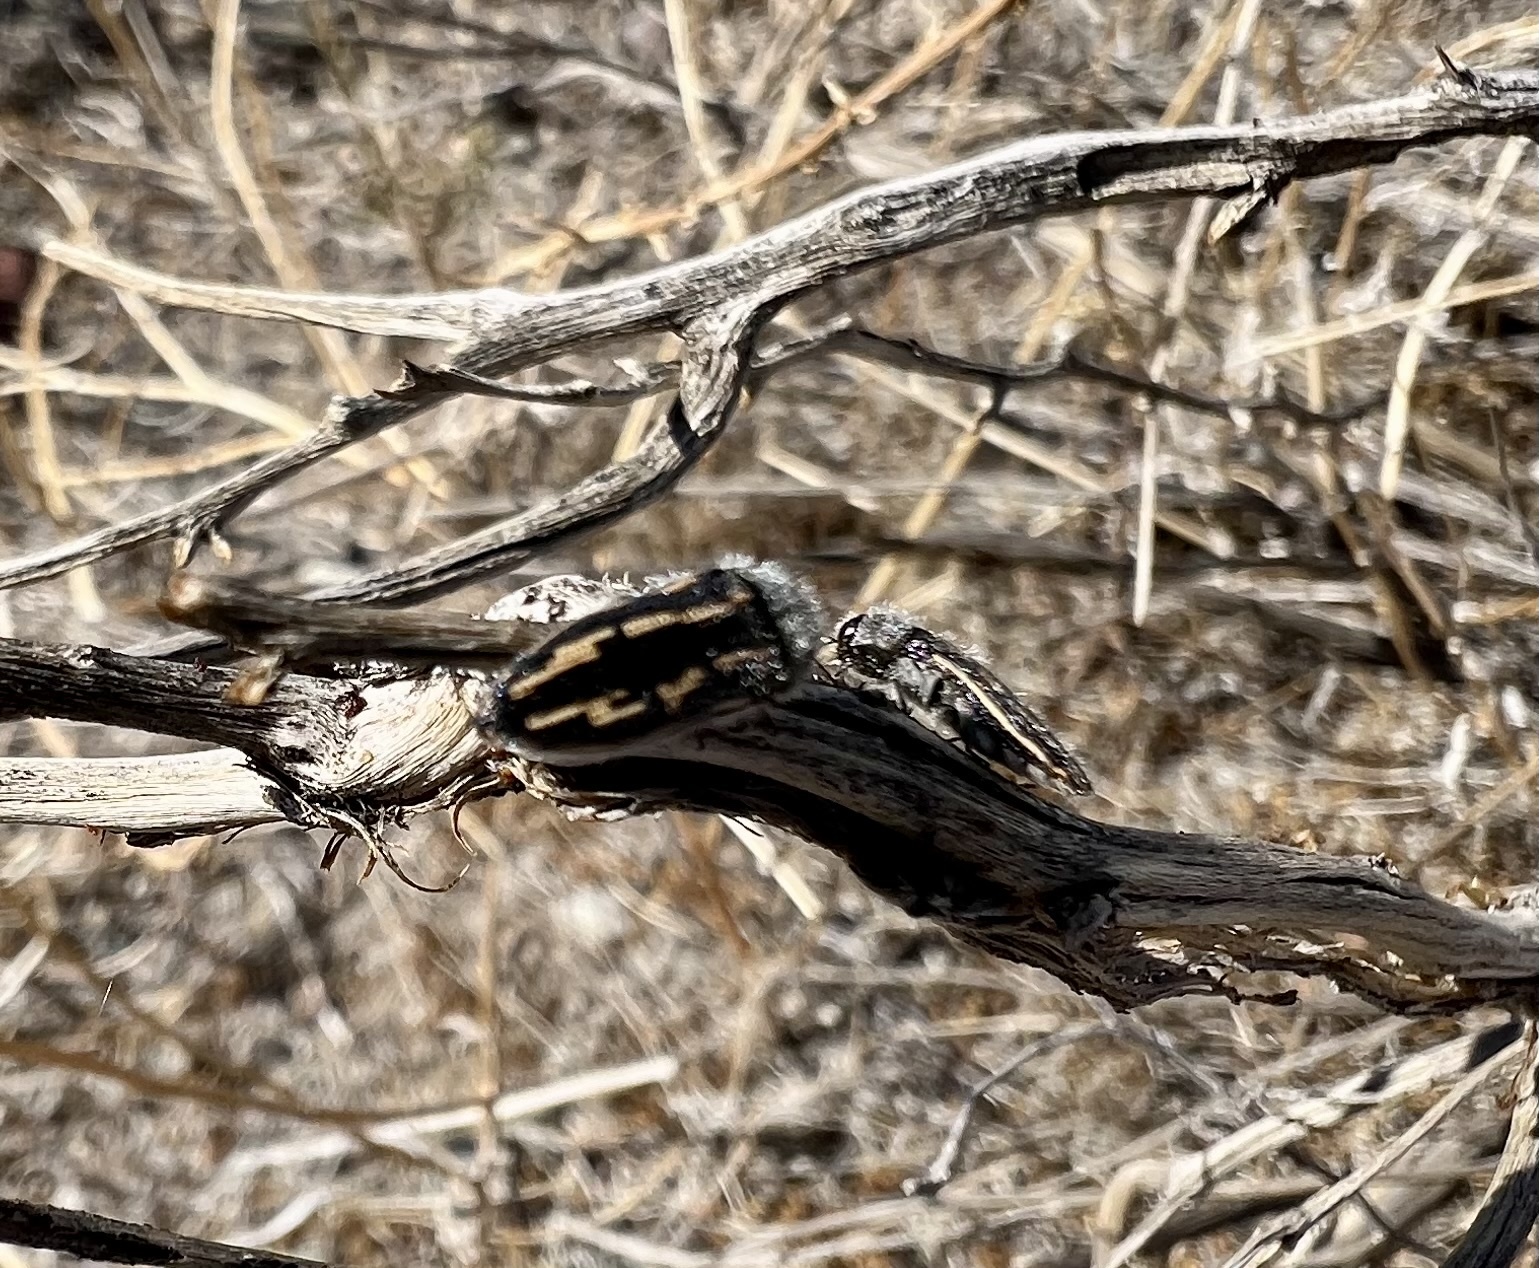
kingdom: Animalia
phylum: Arthropoda
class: Insecta
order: Coleoptera
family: Buprestidae
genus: Acmaeodera
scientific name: Acmaeodera pubiventris
